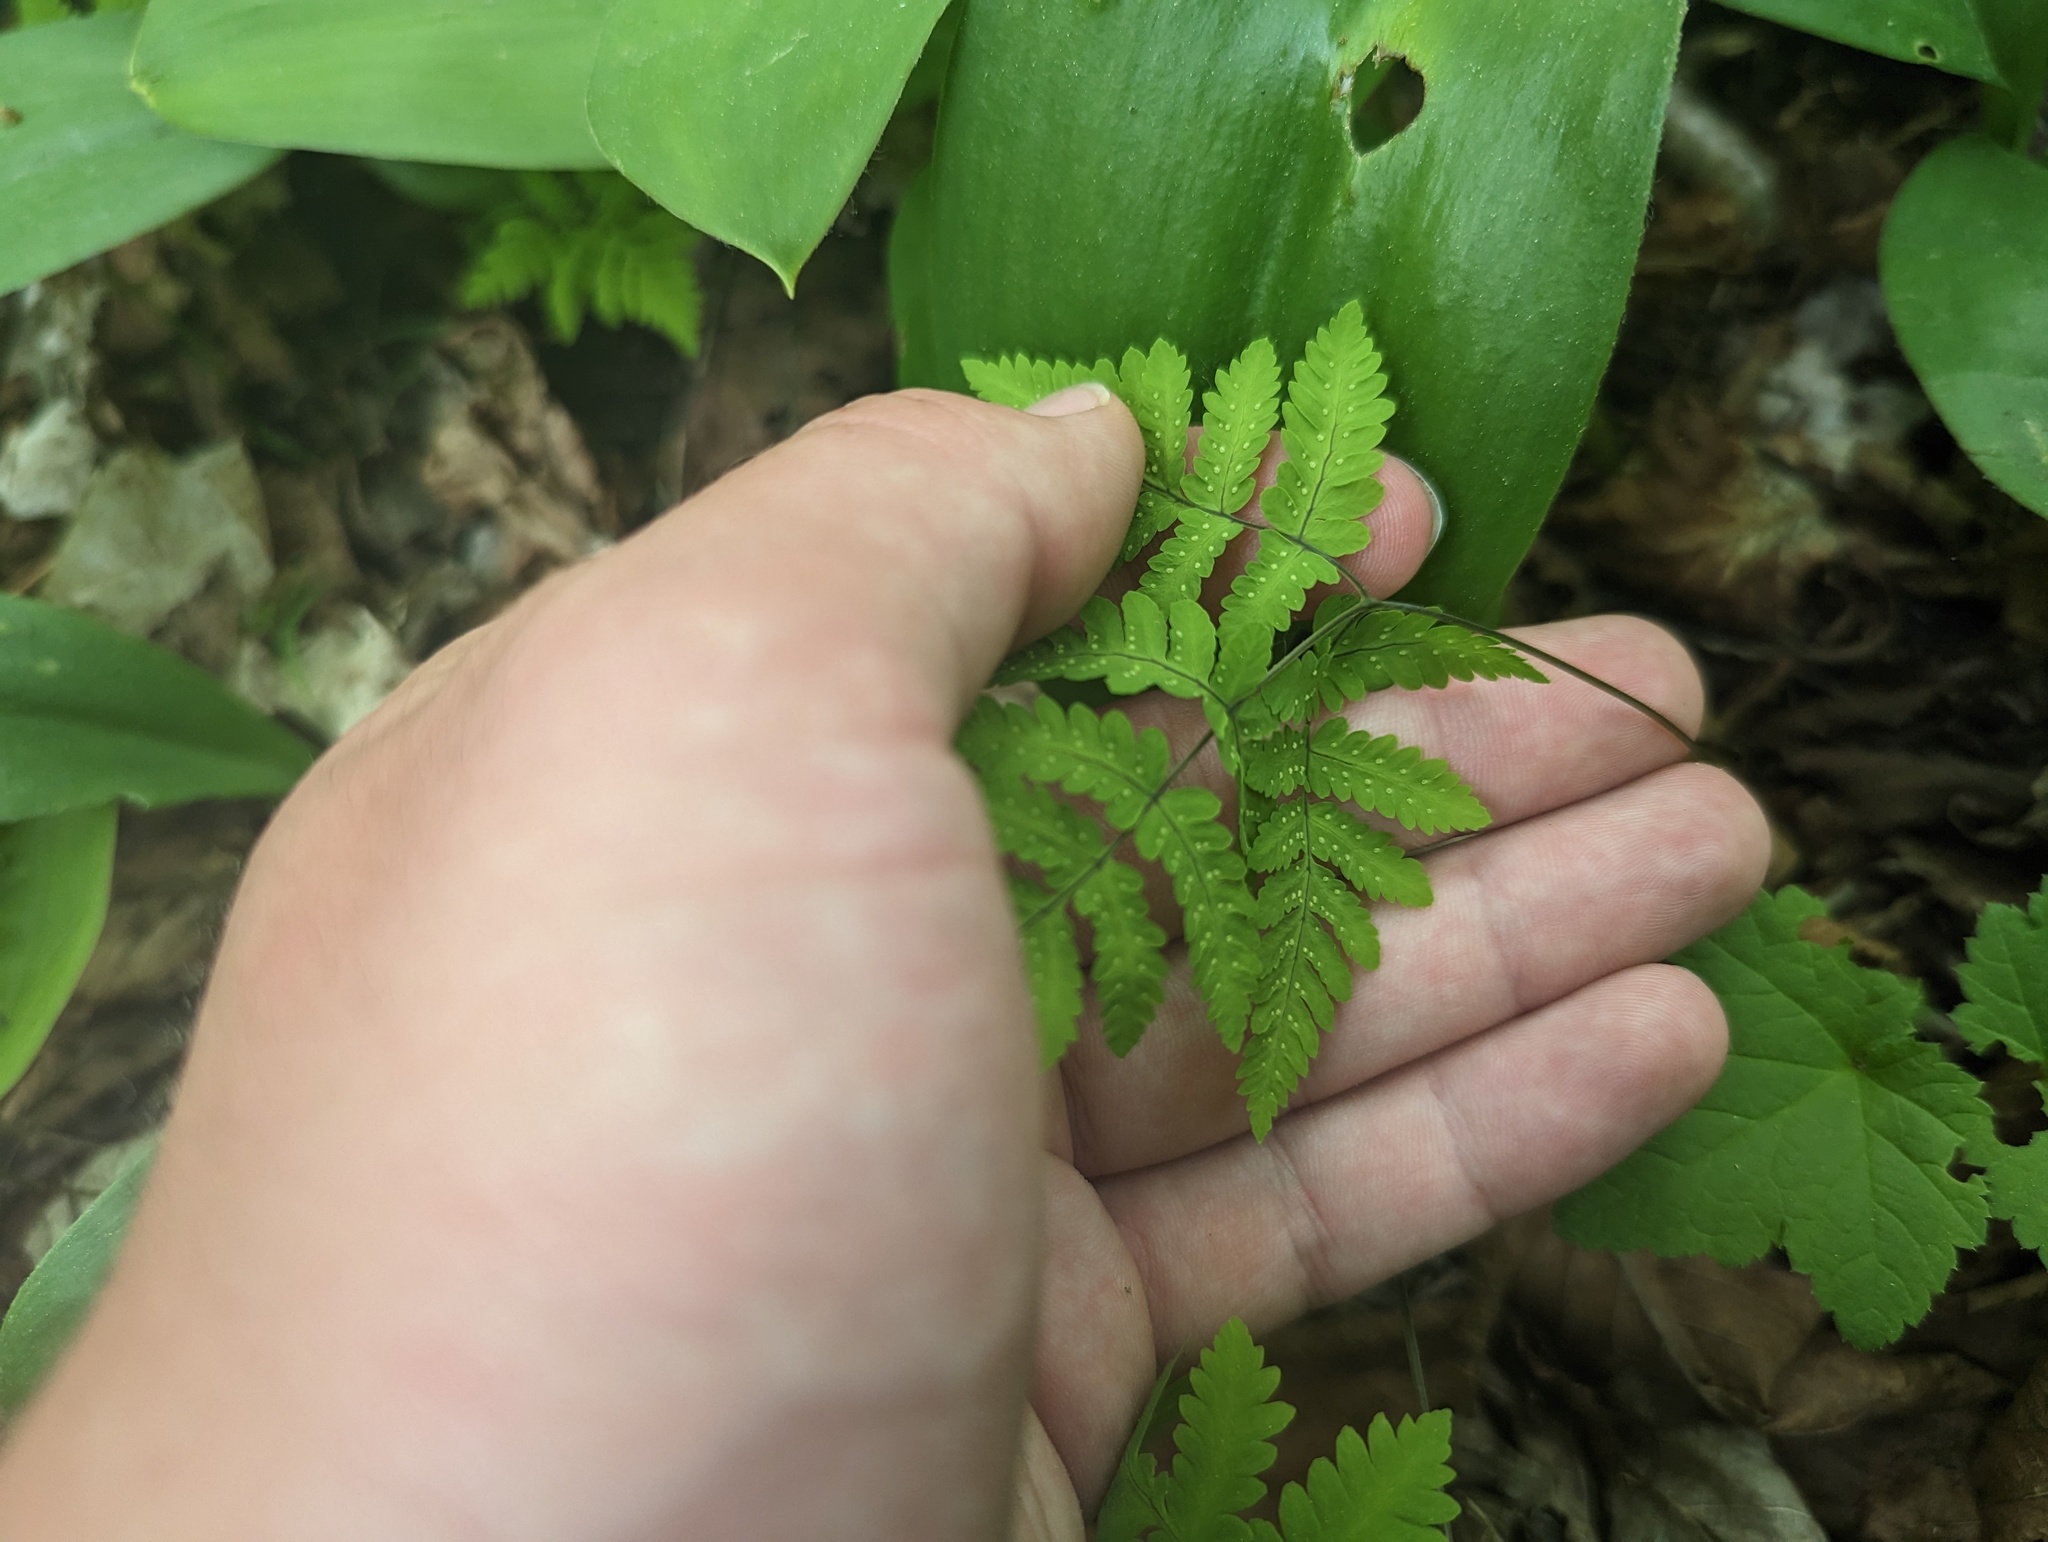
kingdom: Plantae
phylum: Tracheophyta
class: Polypodiopsida
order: Polypodiales
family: Cystopteridaceae
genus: Gymnocarpium
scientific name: Gymnocarpium dryopteris
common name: Oak fern
